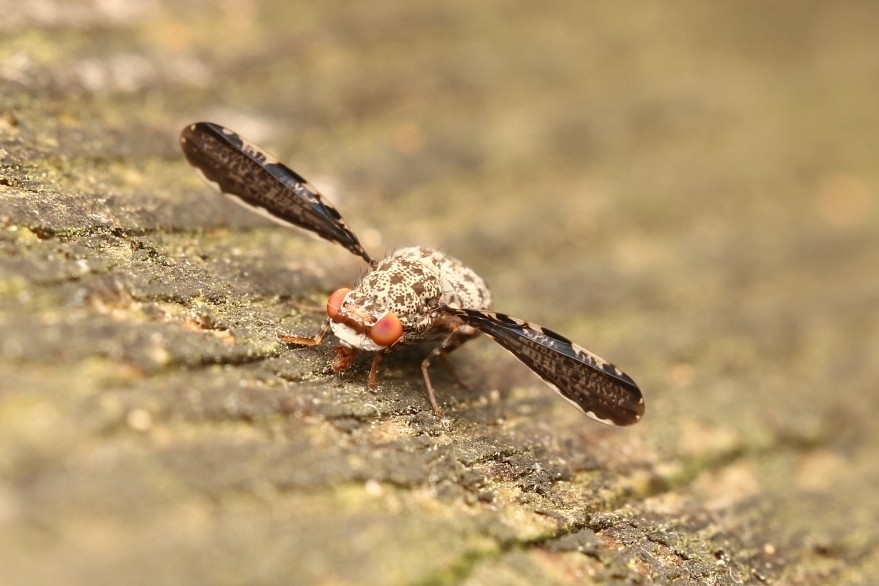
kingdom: Animalia
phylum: Arthropoda
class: Insecta
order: Diptera
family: Ulidiidae
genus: Callopistromyia
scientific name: Callopistromyia strigula
